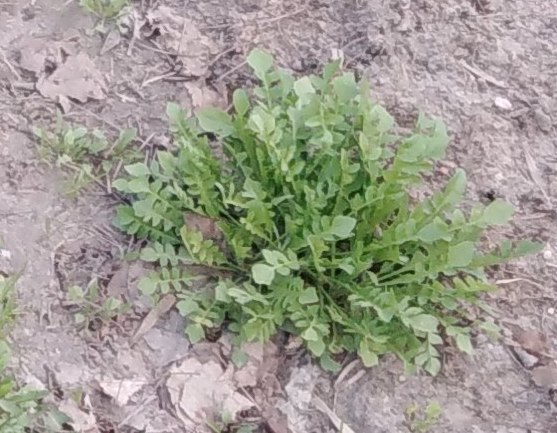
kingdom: Plantae
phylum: Tracheophyta
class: Magnoliopsida
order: Brassicales
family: Brassicaceae
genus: Capsella
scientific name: Capsella bursa-pastoris
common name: Shepherd's purse
